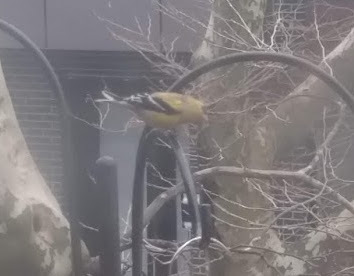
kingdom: Animalia
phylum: Chordata
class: Aves
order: Passeriformes
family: Fringillidae
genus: Spinus
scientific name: Spinus tristis
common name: American goldfinch
